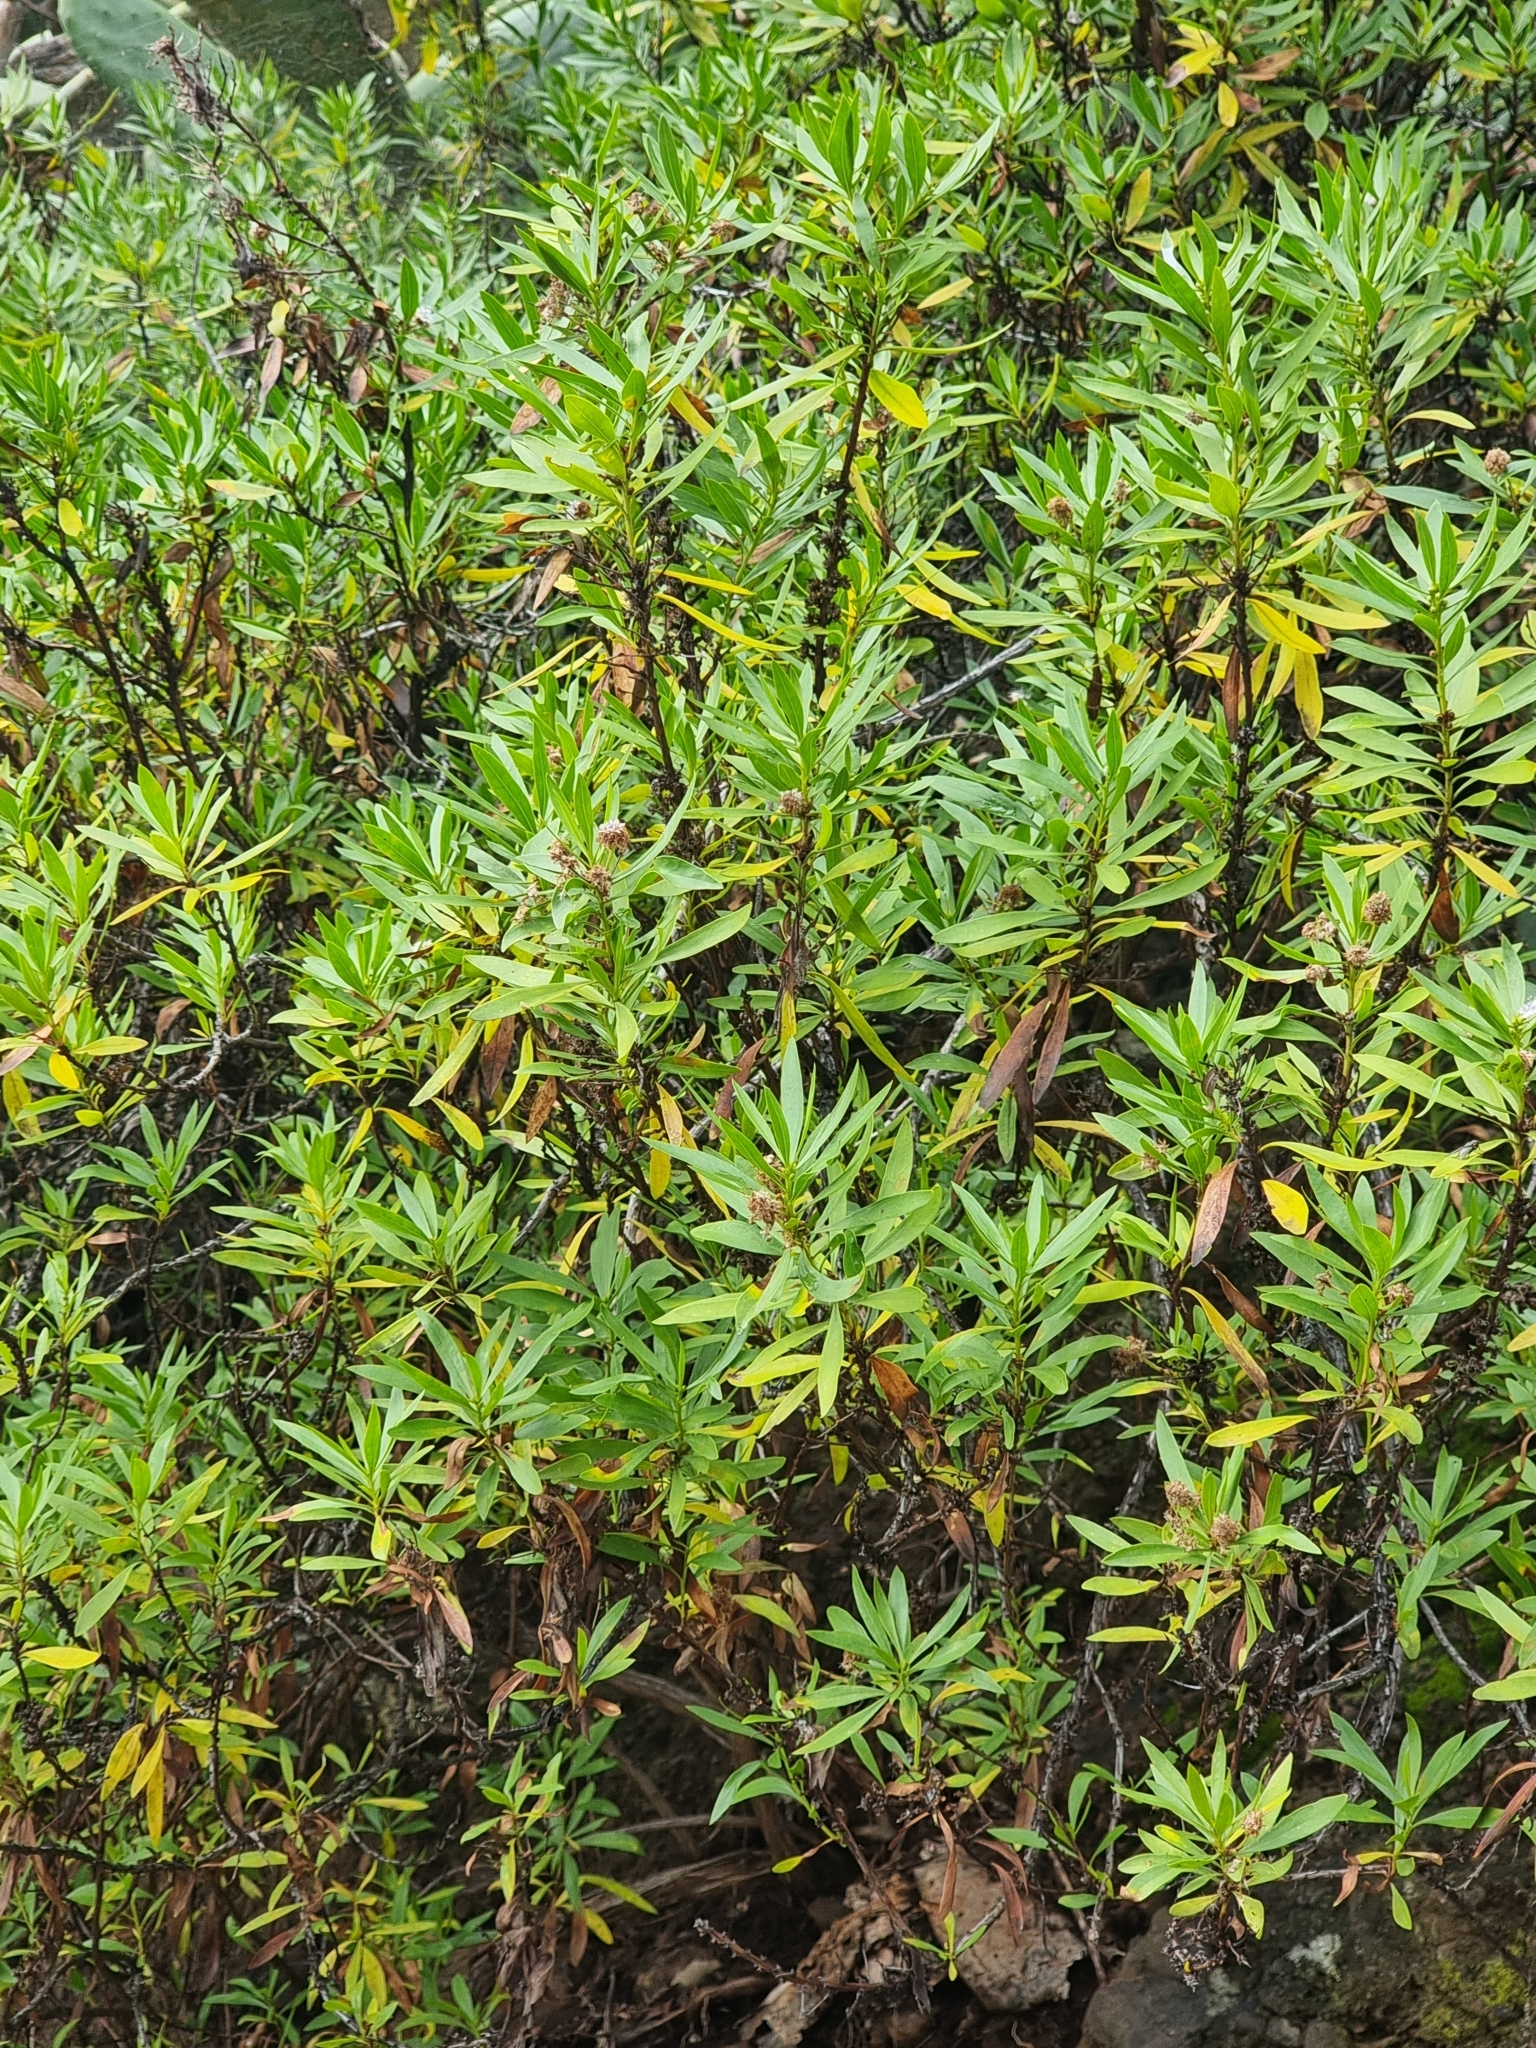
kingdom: Plantae
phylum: Tracheophyta
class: Magnoliopsida
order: Lamiales
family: Plantaginaceae
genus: Globularia
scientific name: Globularia salicina
